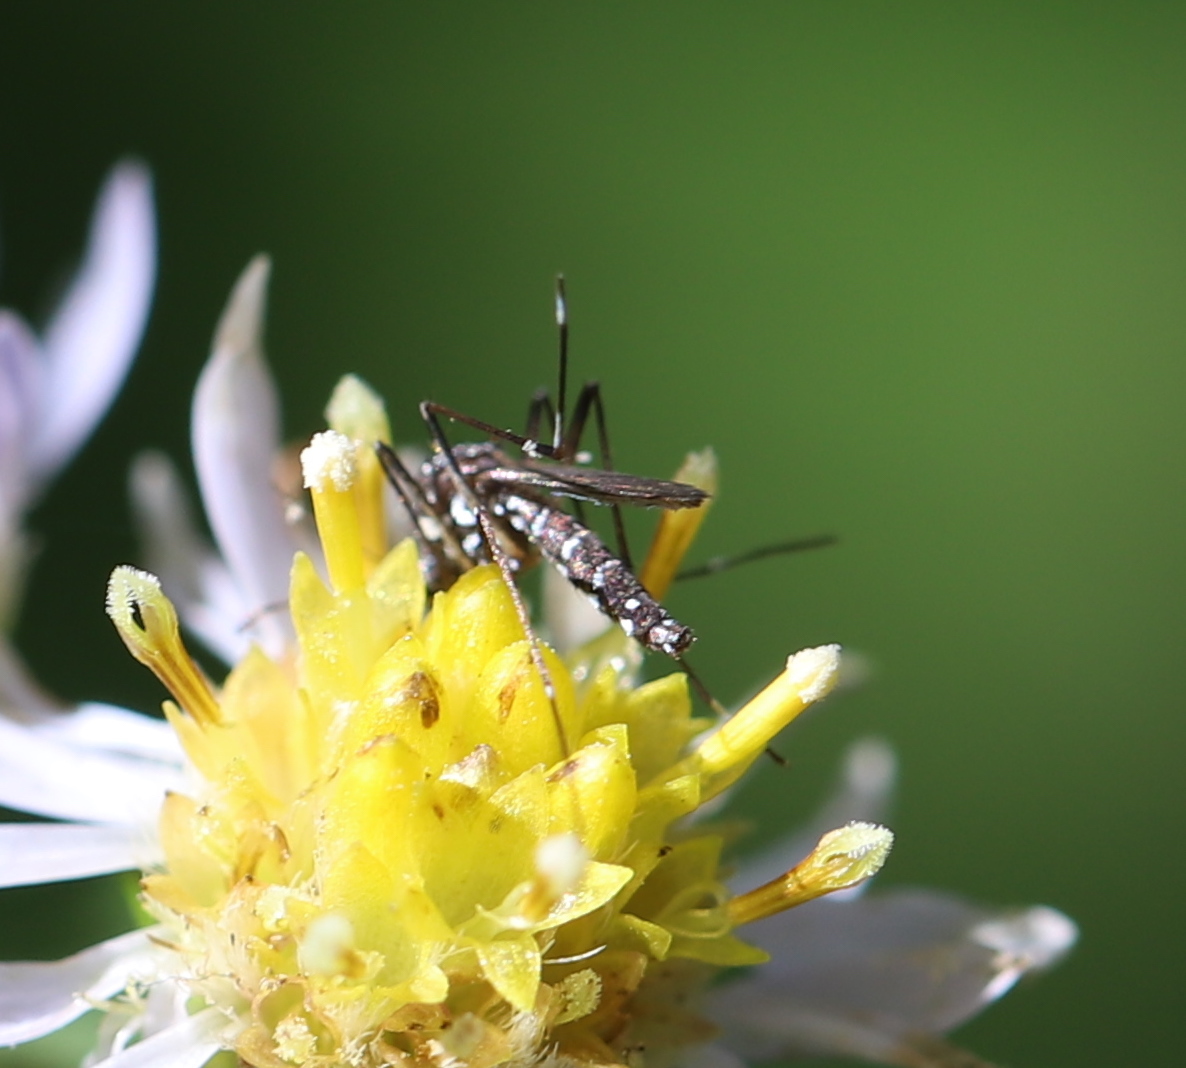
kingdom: Animalia
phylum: Arthropoda
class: Insecta
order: Diptera
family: Culicidae
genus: Aedes
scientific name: Aedes albopictus
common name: Tiger mosquito
